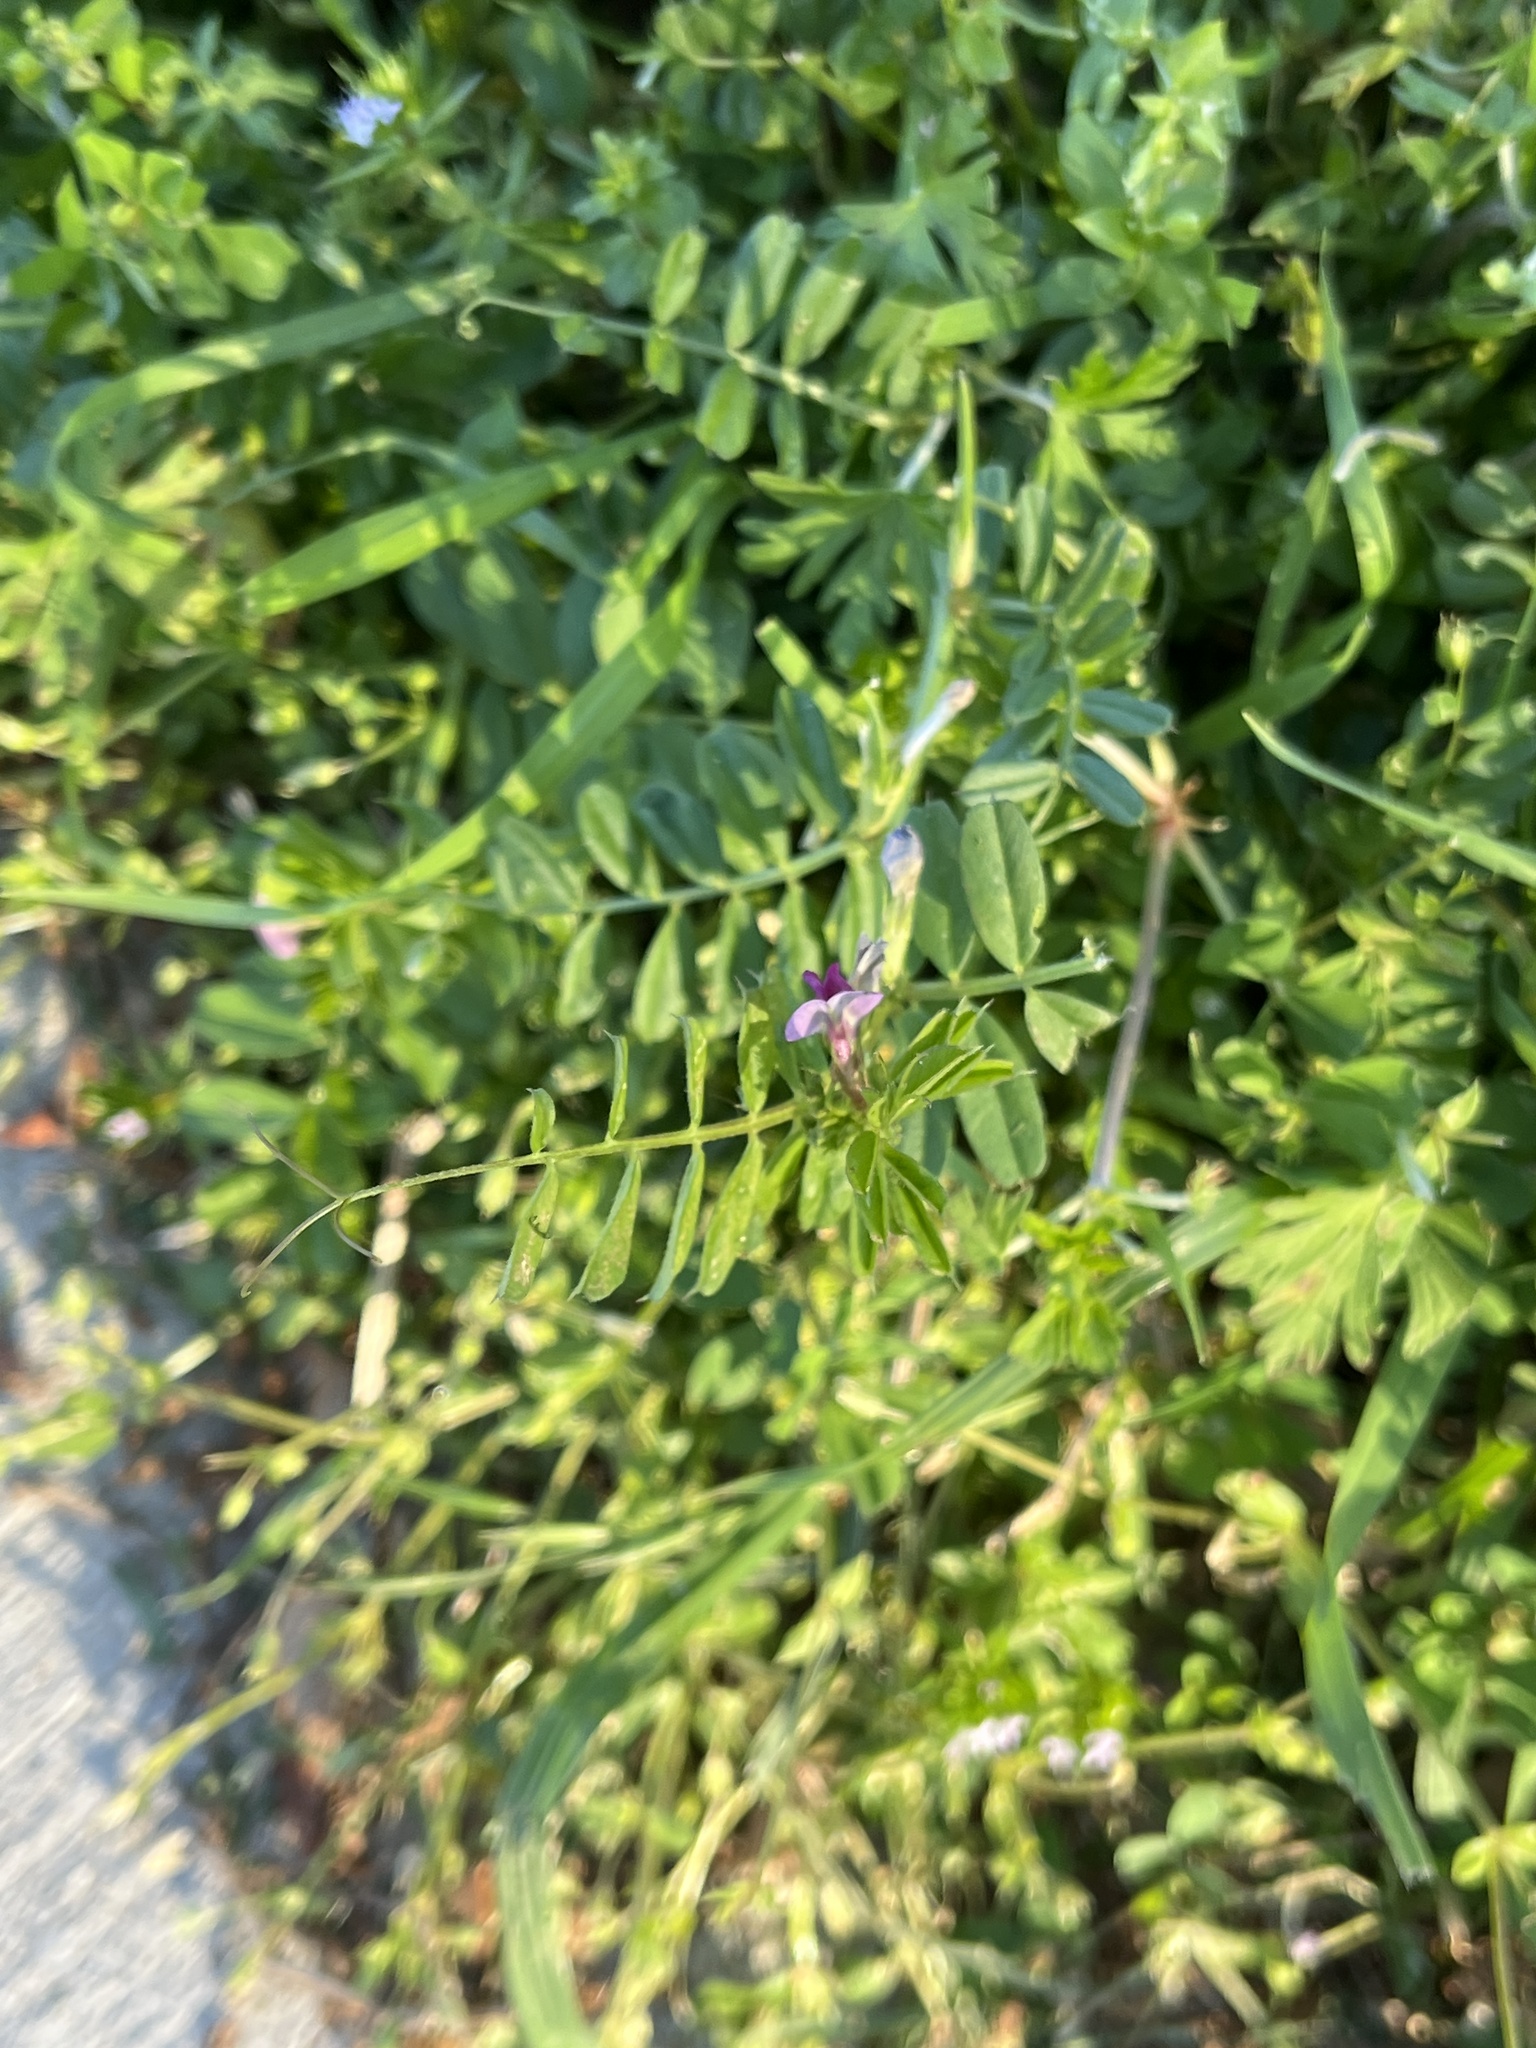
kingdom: Plantae
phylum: Tracheophyta
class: Magnoliopsida
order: Fabales
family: Fabaceae
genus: Vicia
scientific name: Vicia sativa
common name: Garden vetch
